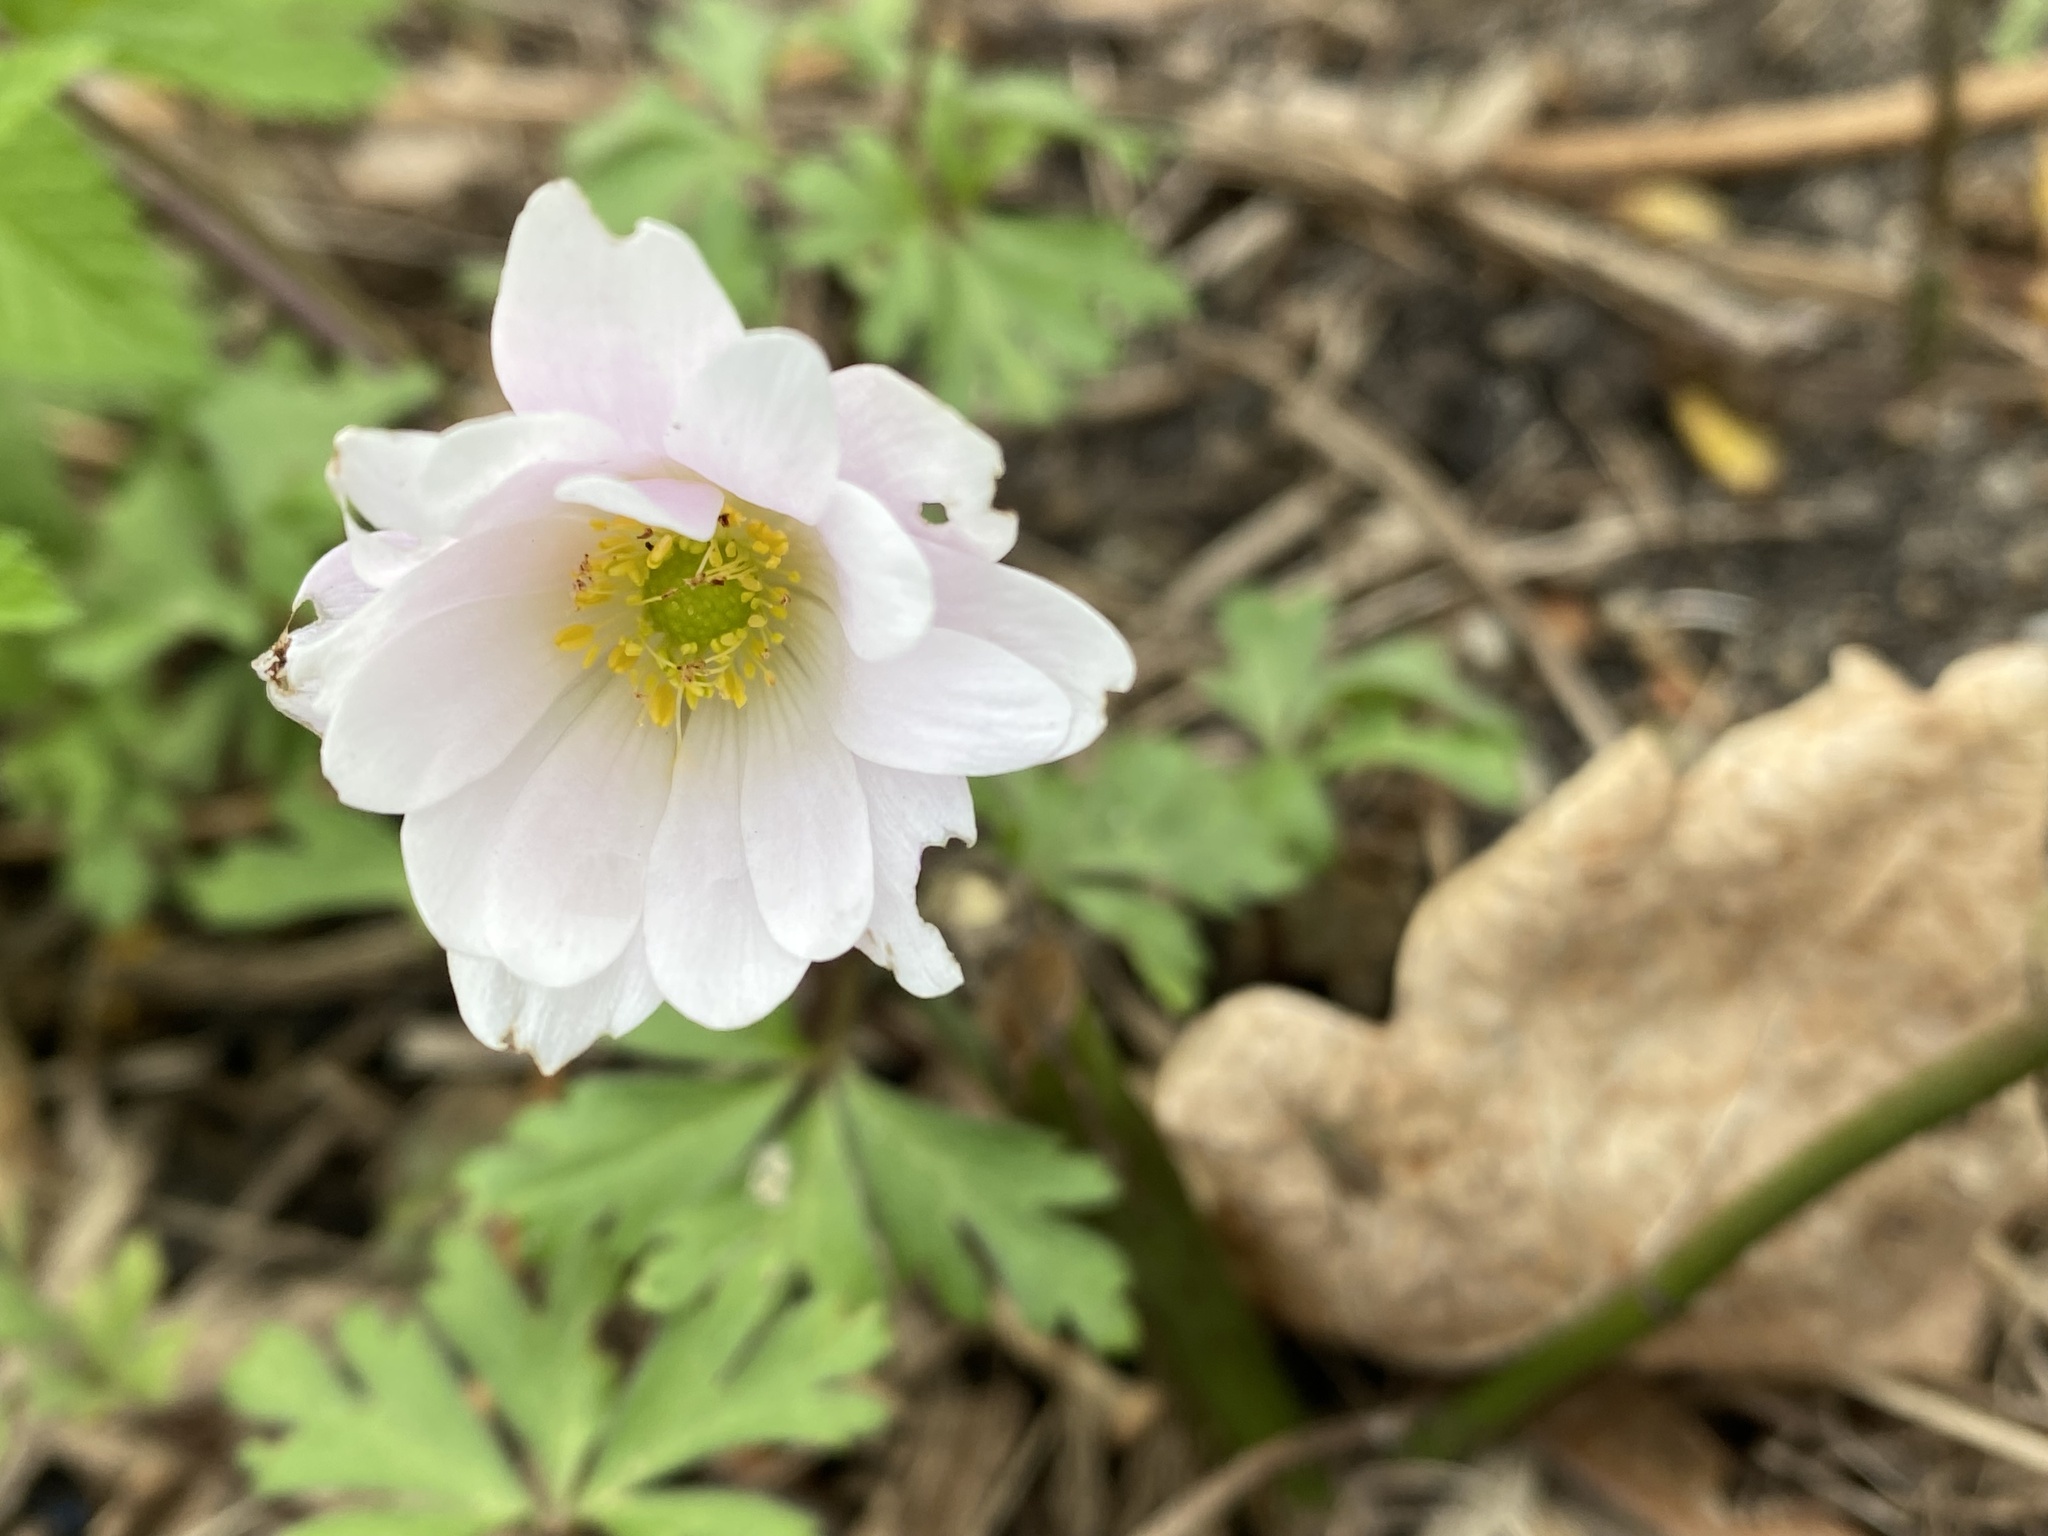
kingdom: Plantae
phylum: Tracheophyta
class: Magnoliopsida
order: Ranunculales
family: Ranunculaceae
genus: Anemone
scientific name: Anemone blanda
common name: Balkan anemone
